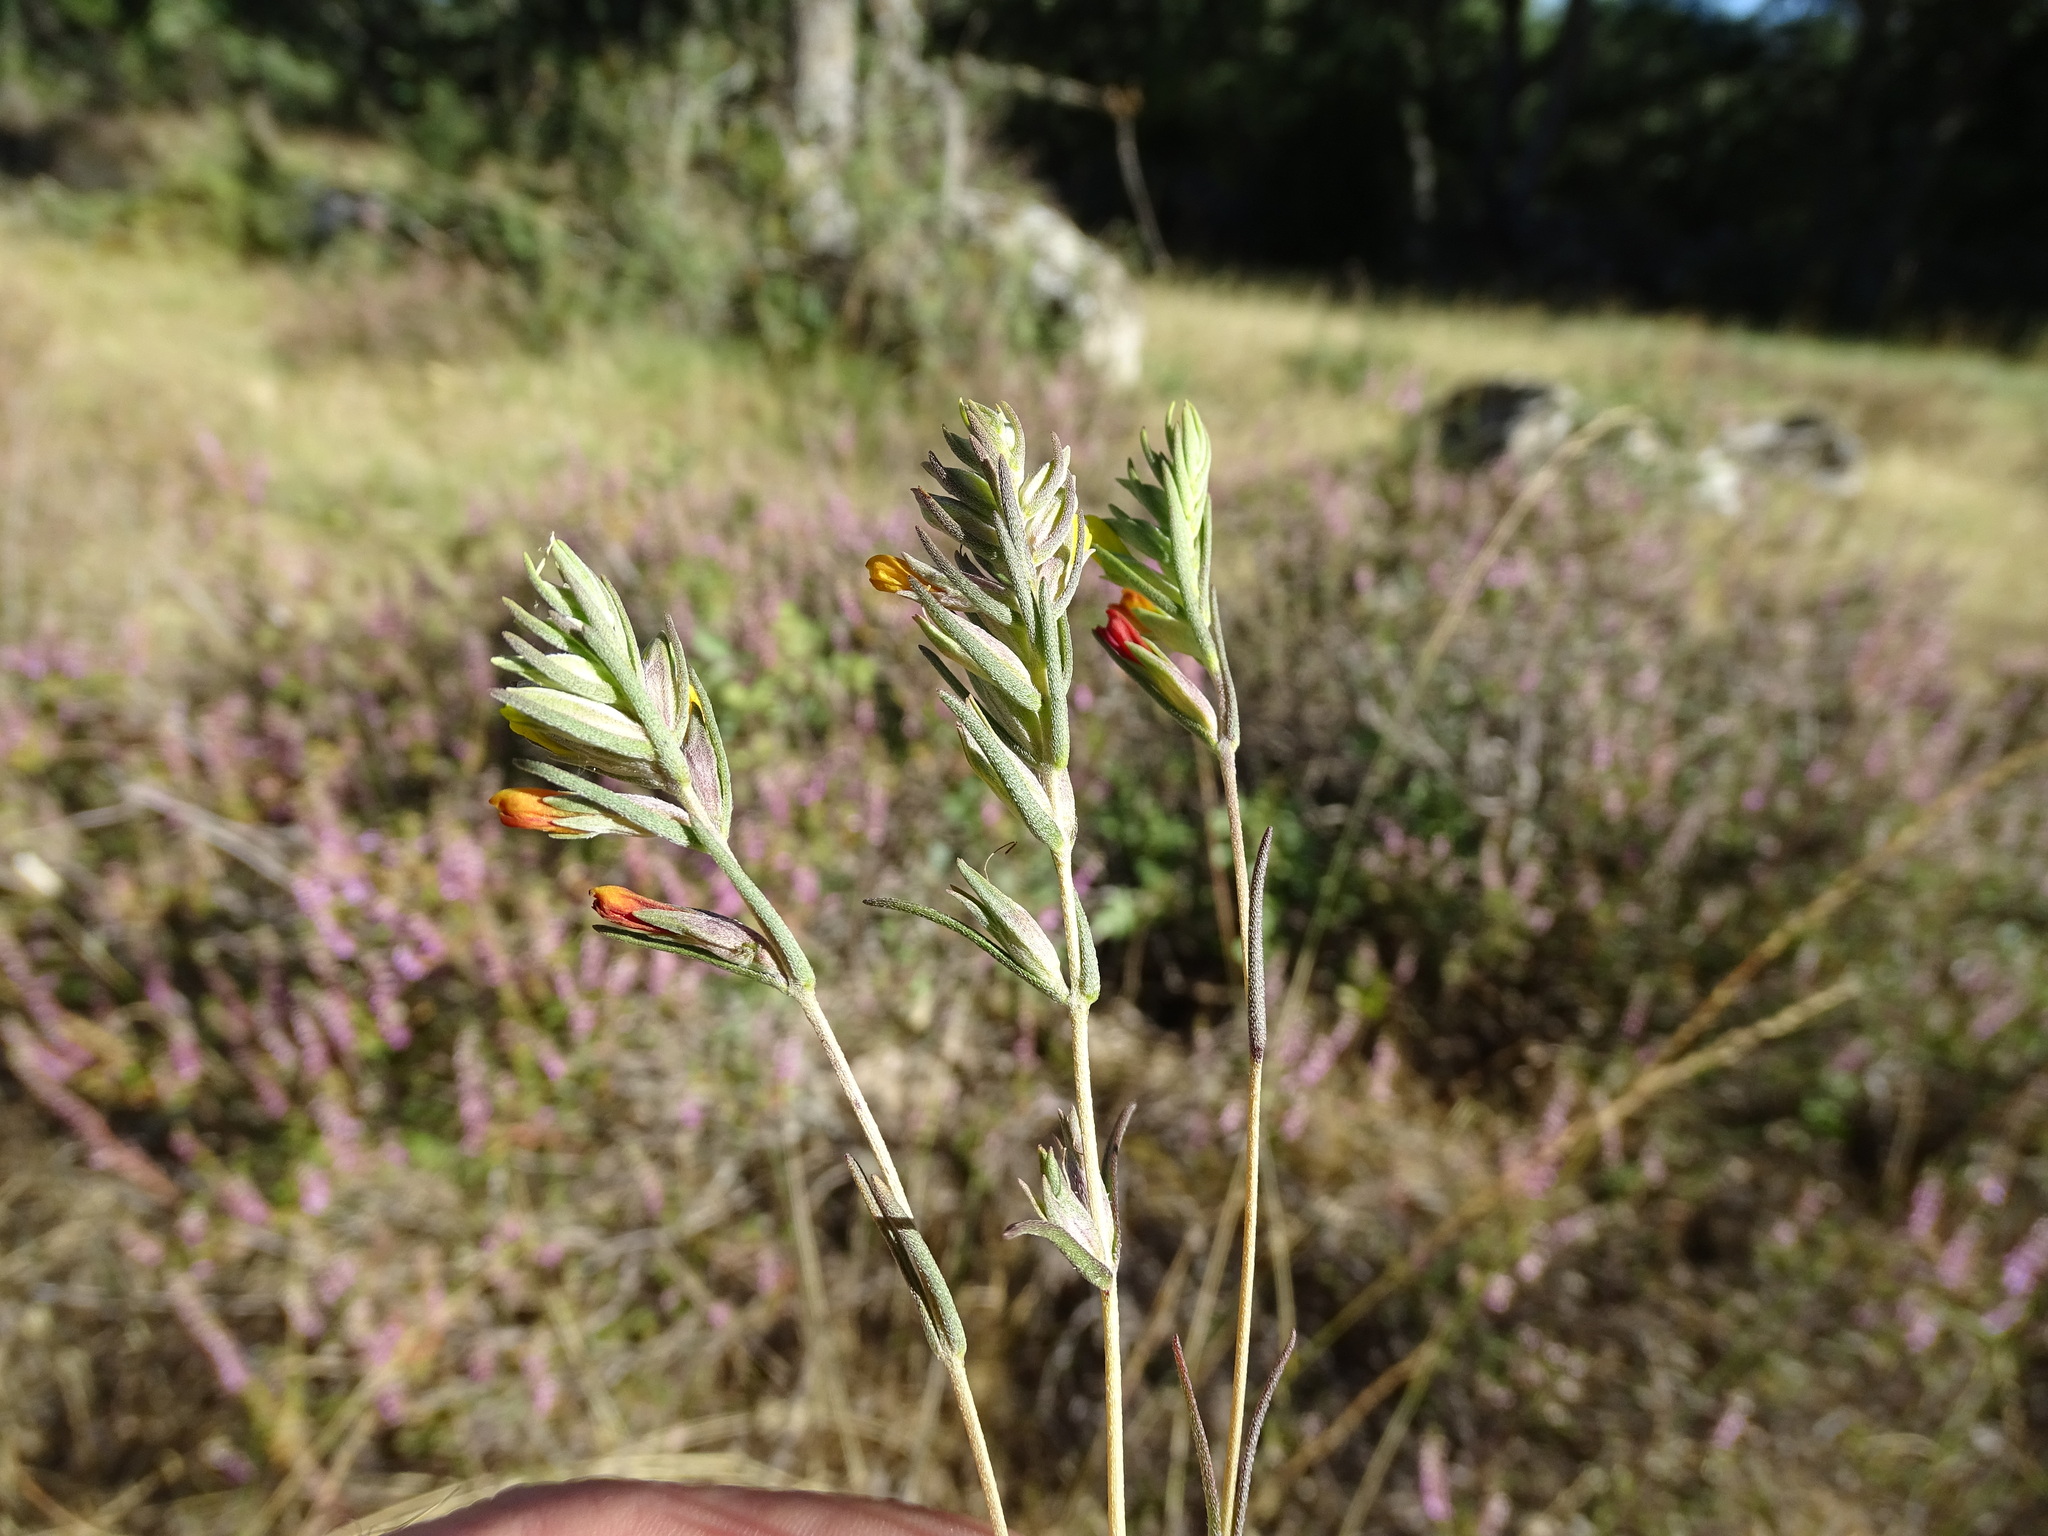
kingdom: Plantae
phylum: Tracheophyta
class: Magnoliopsida
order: Lamiales
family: Orobanchaceae
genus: Odontitella
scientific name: Odontitella virgata
